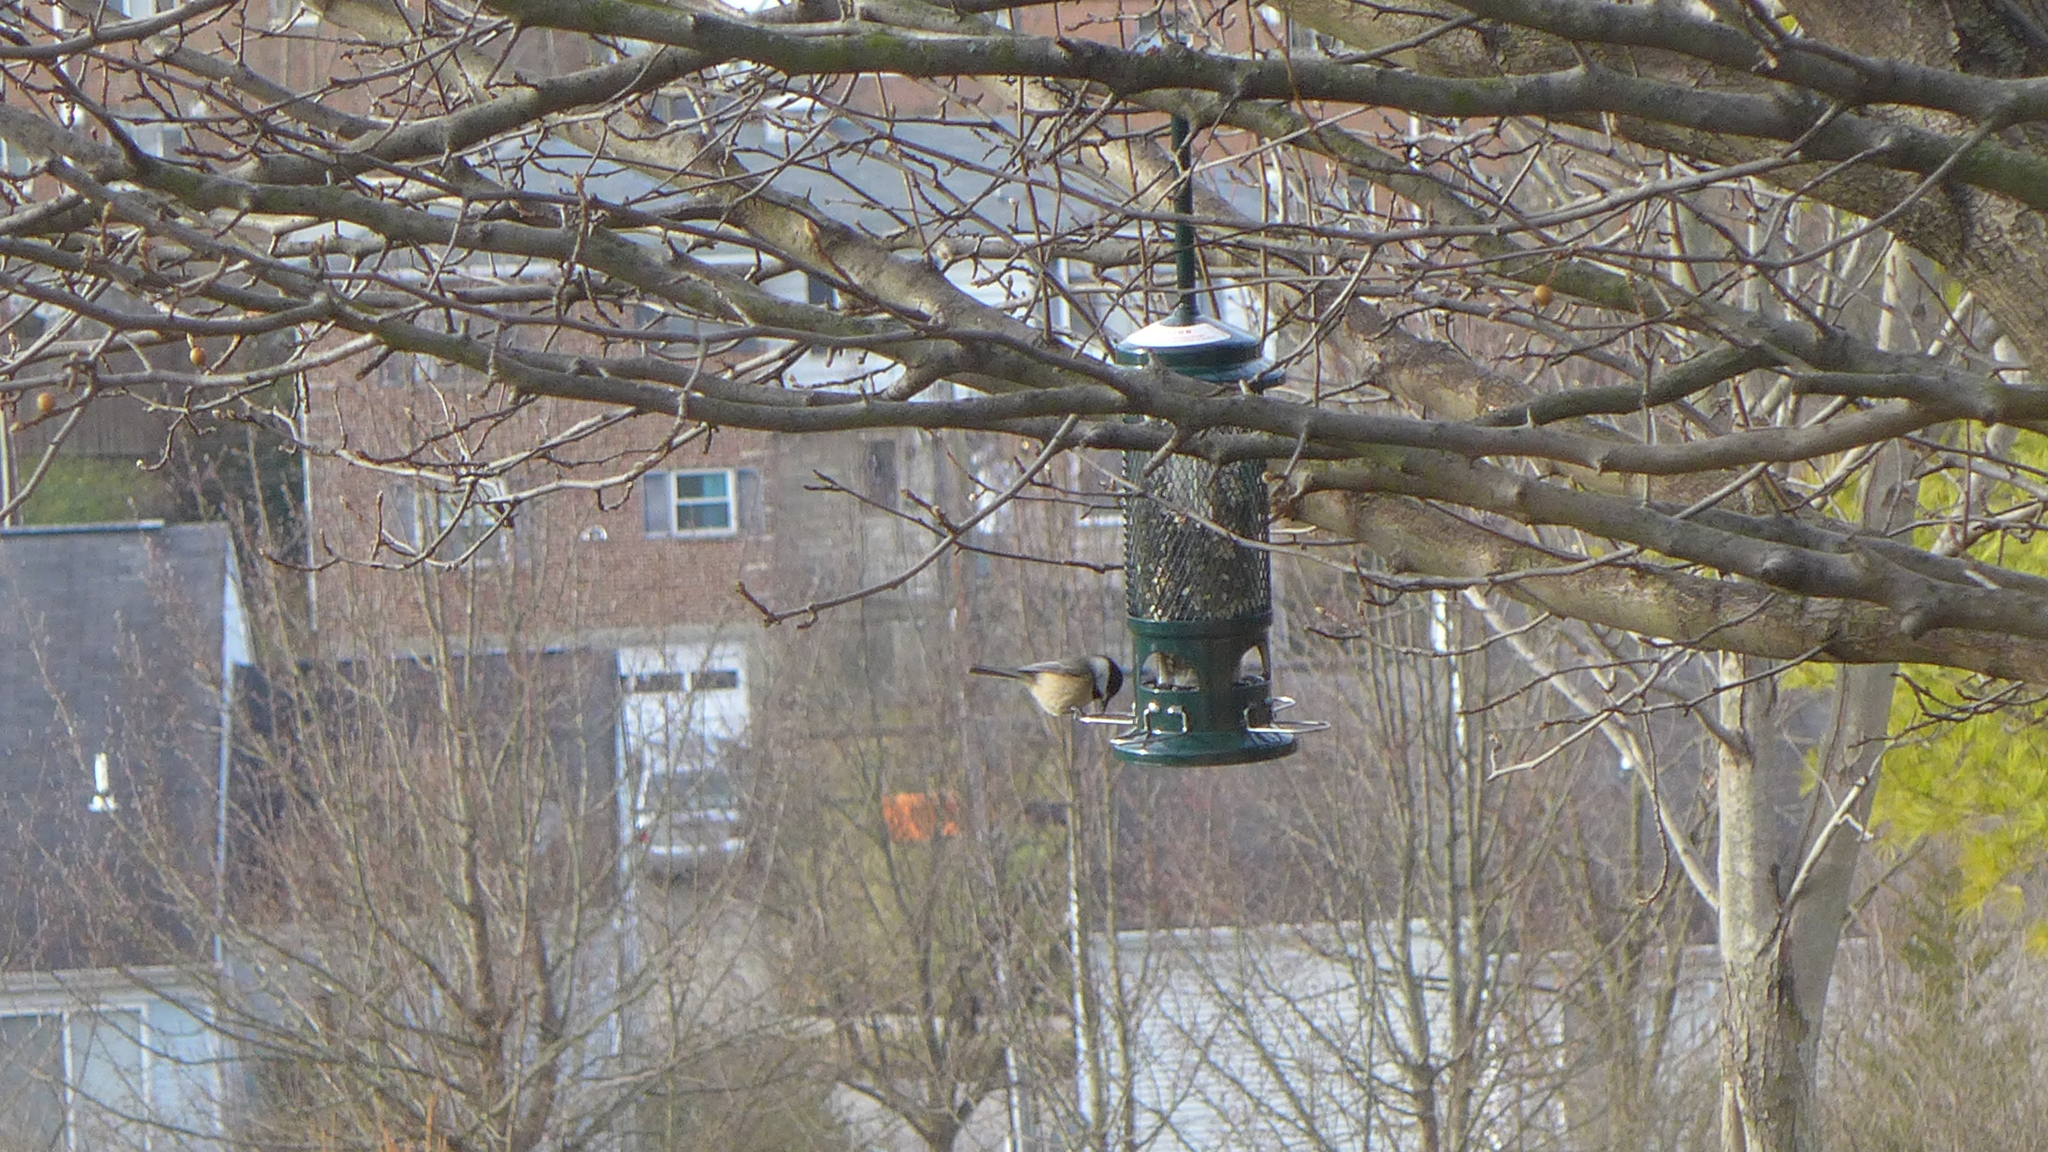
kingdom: Animalia
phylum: Chordata
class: Aves
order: Passeriformes
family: Paridae
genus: Poecile
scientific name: Poecile carolinensis
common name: Carolina chickadee
